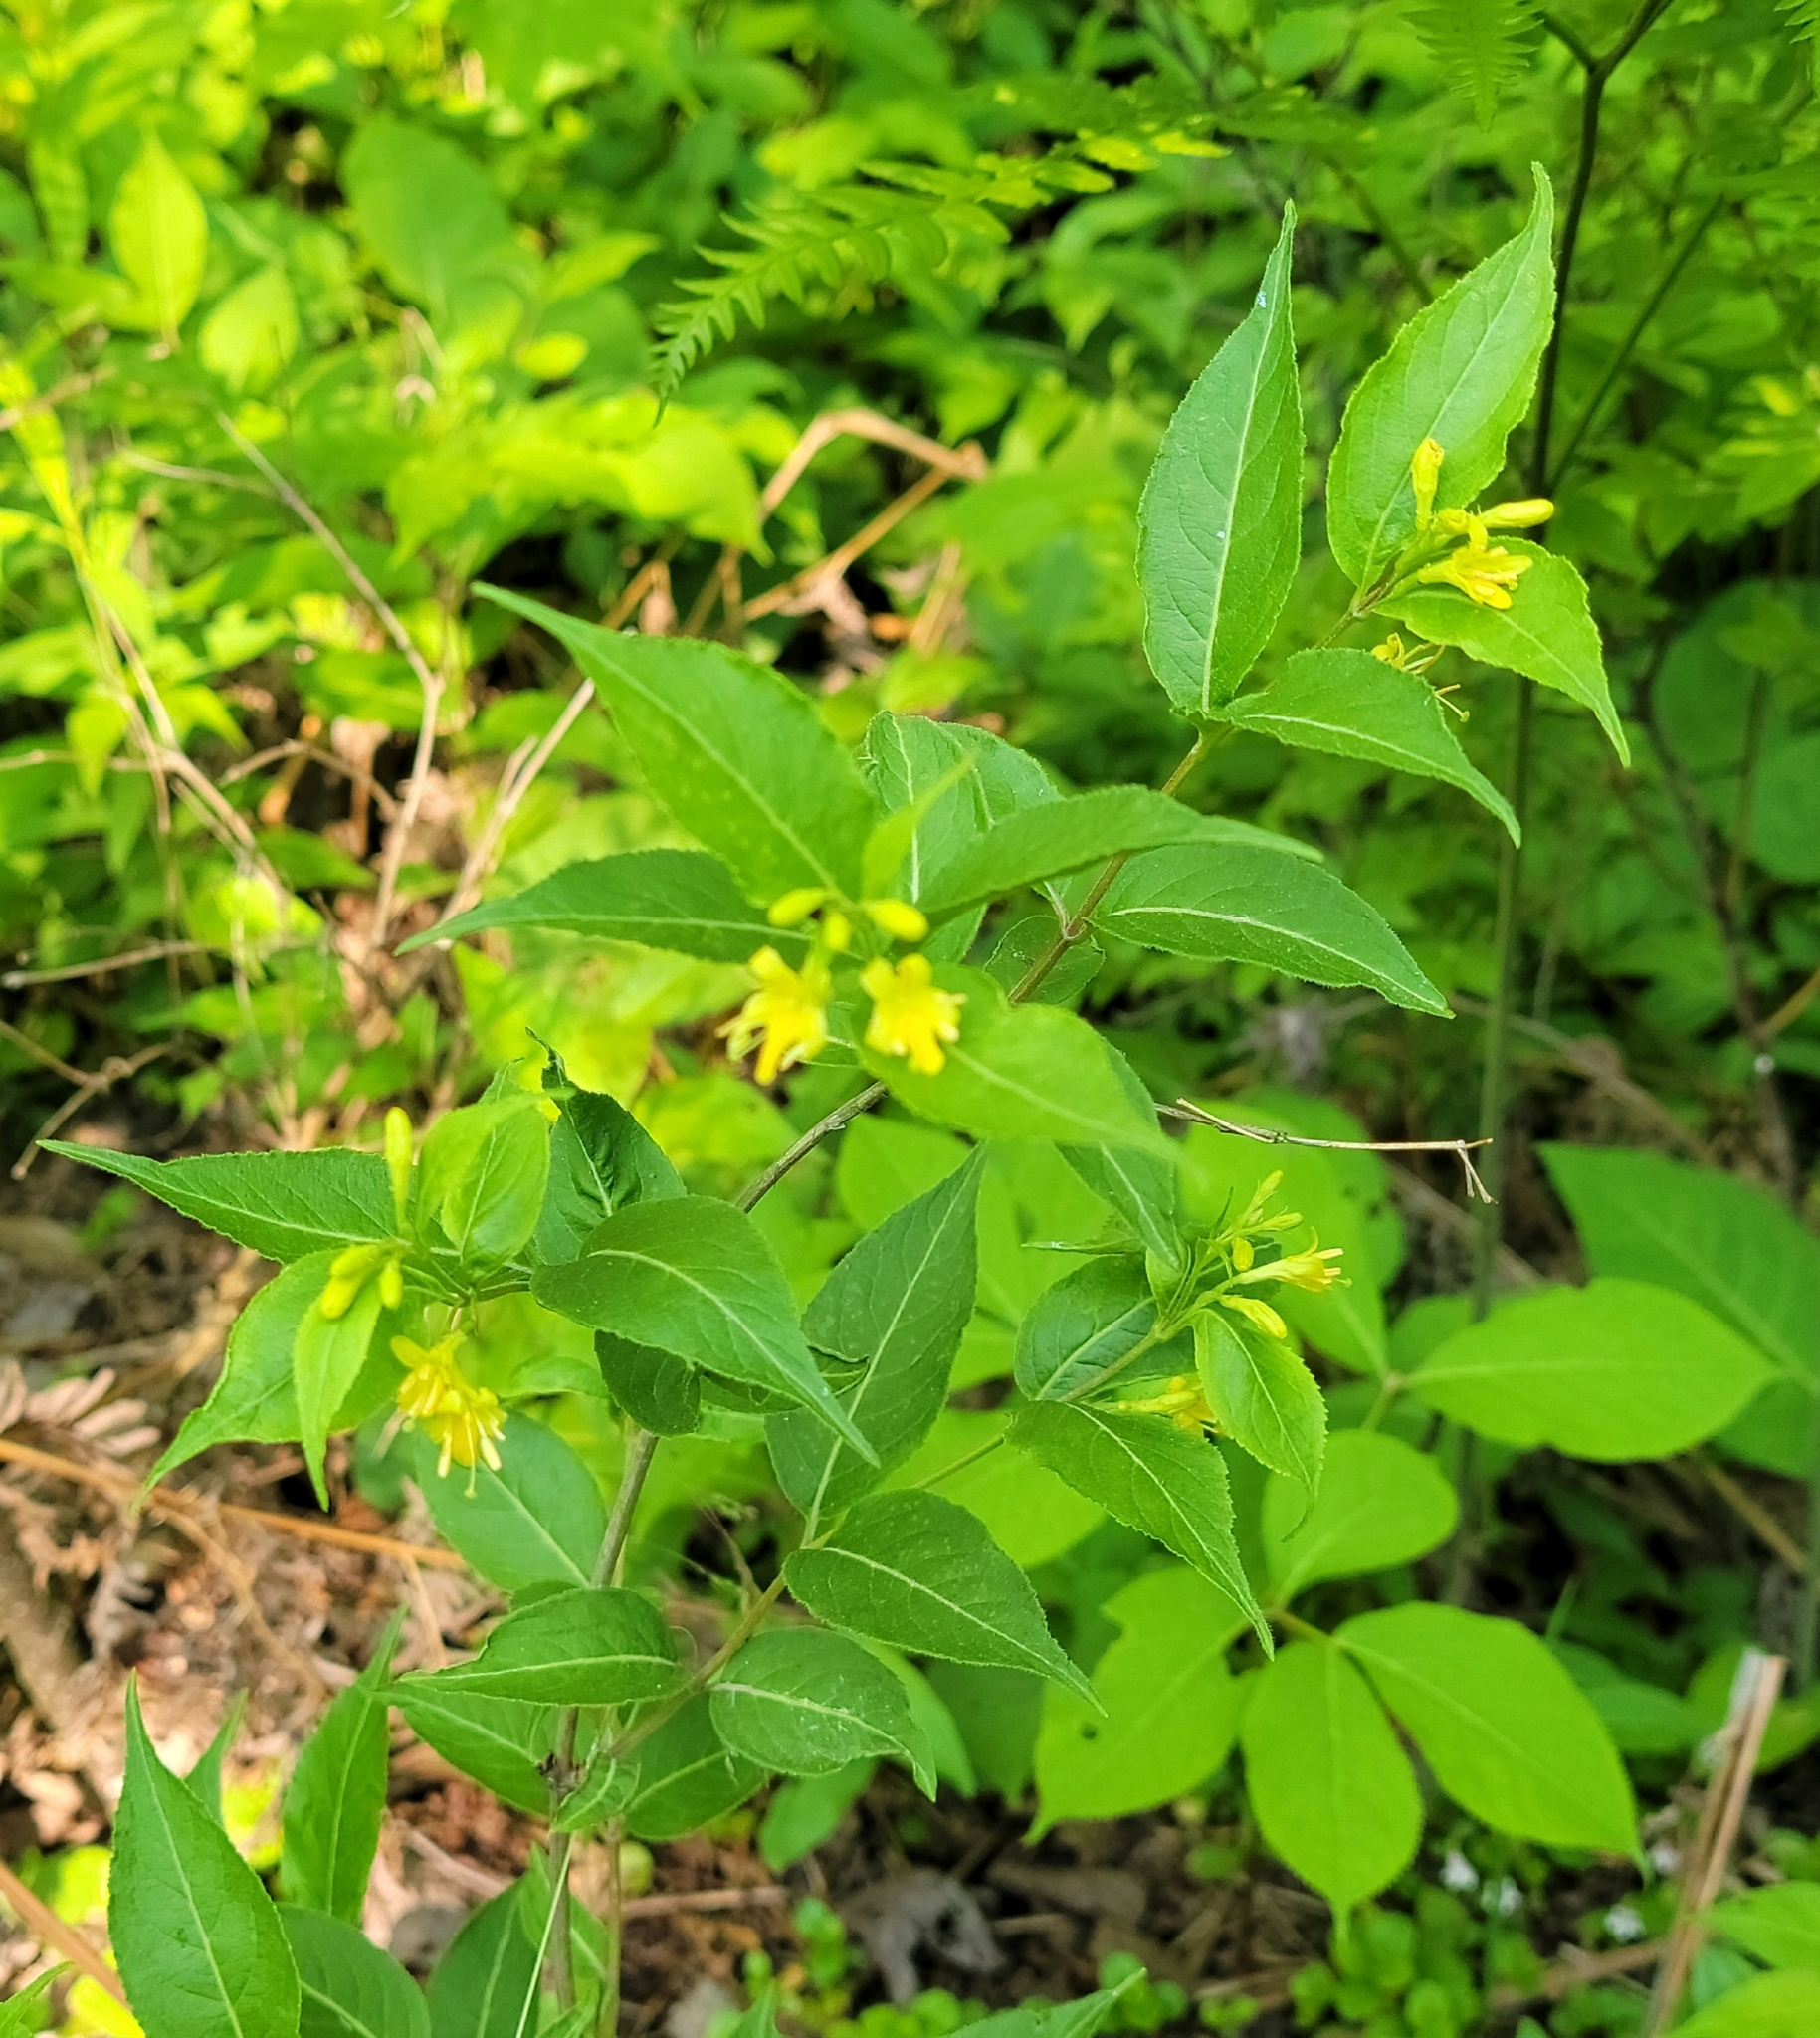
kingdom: Plantae
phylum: Tracheophyta
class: Magnoliopsida
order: Dipsacales
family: Caprifoliaceae
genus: Diervilla
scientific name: Diervilla lonicera
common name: Bush-honeysuckle
